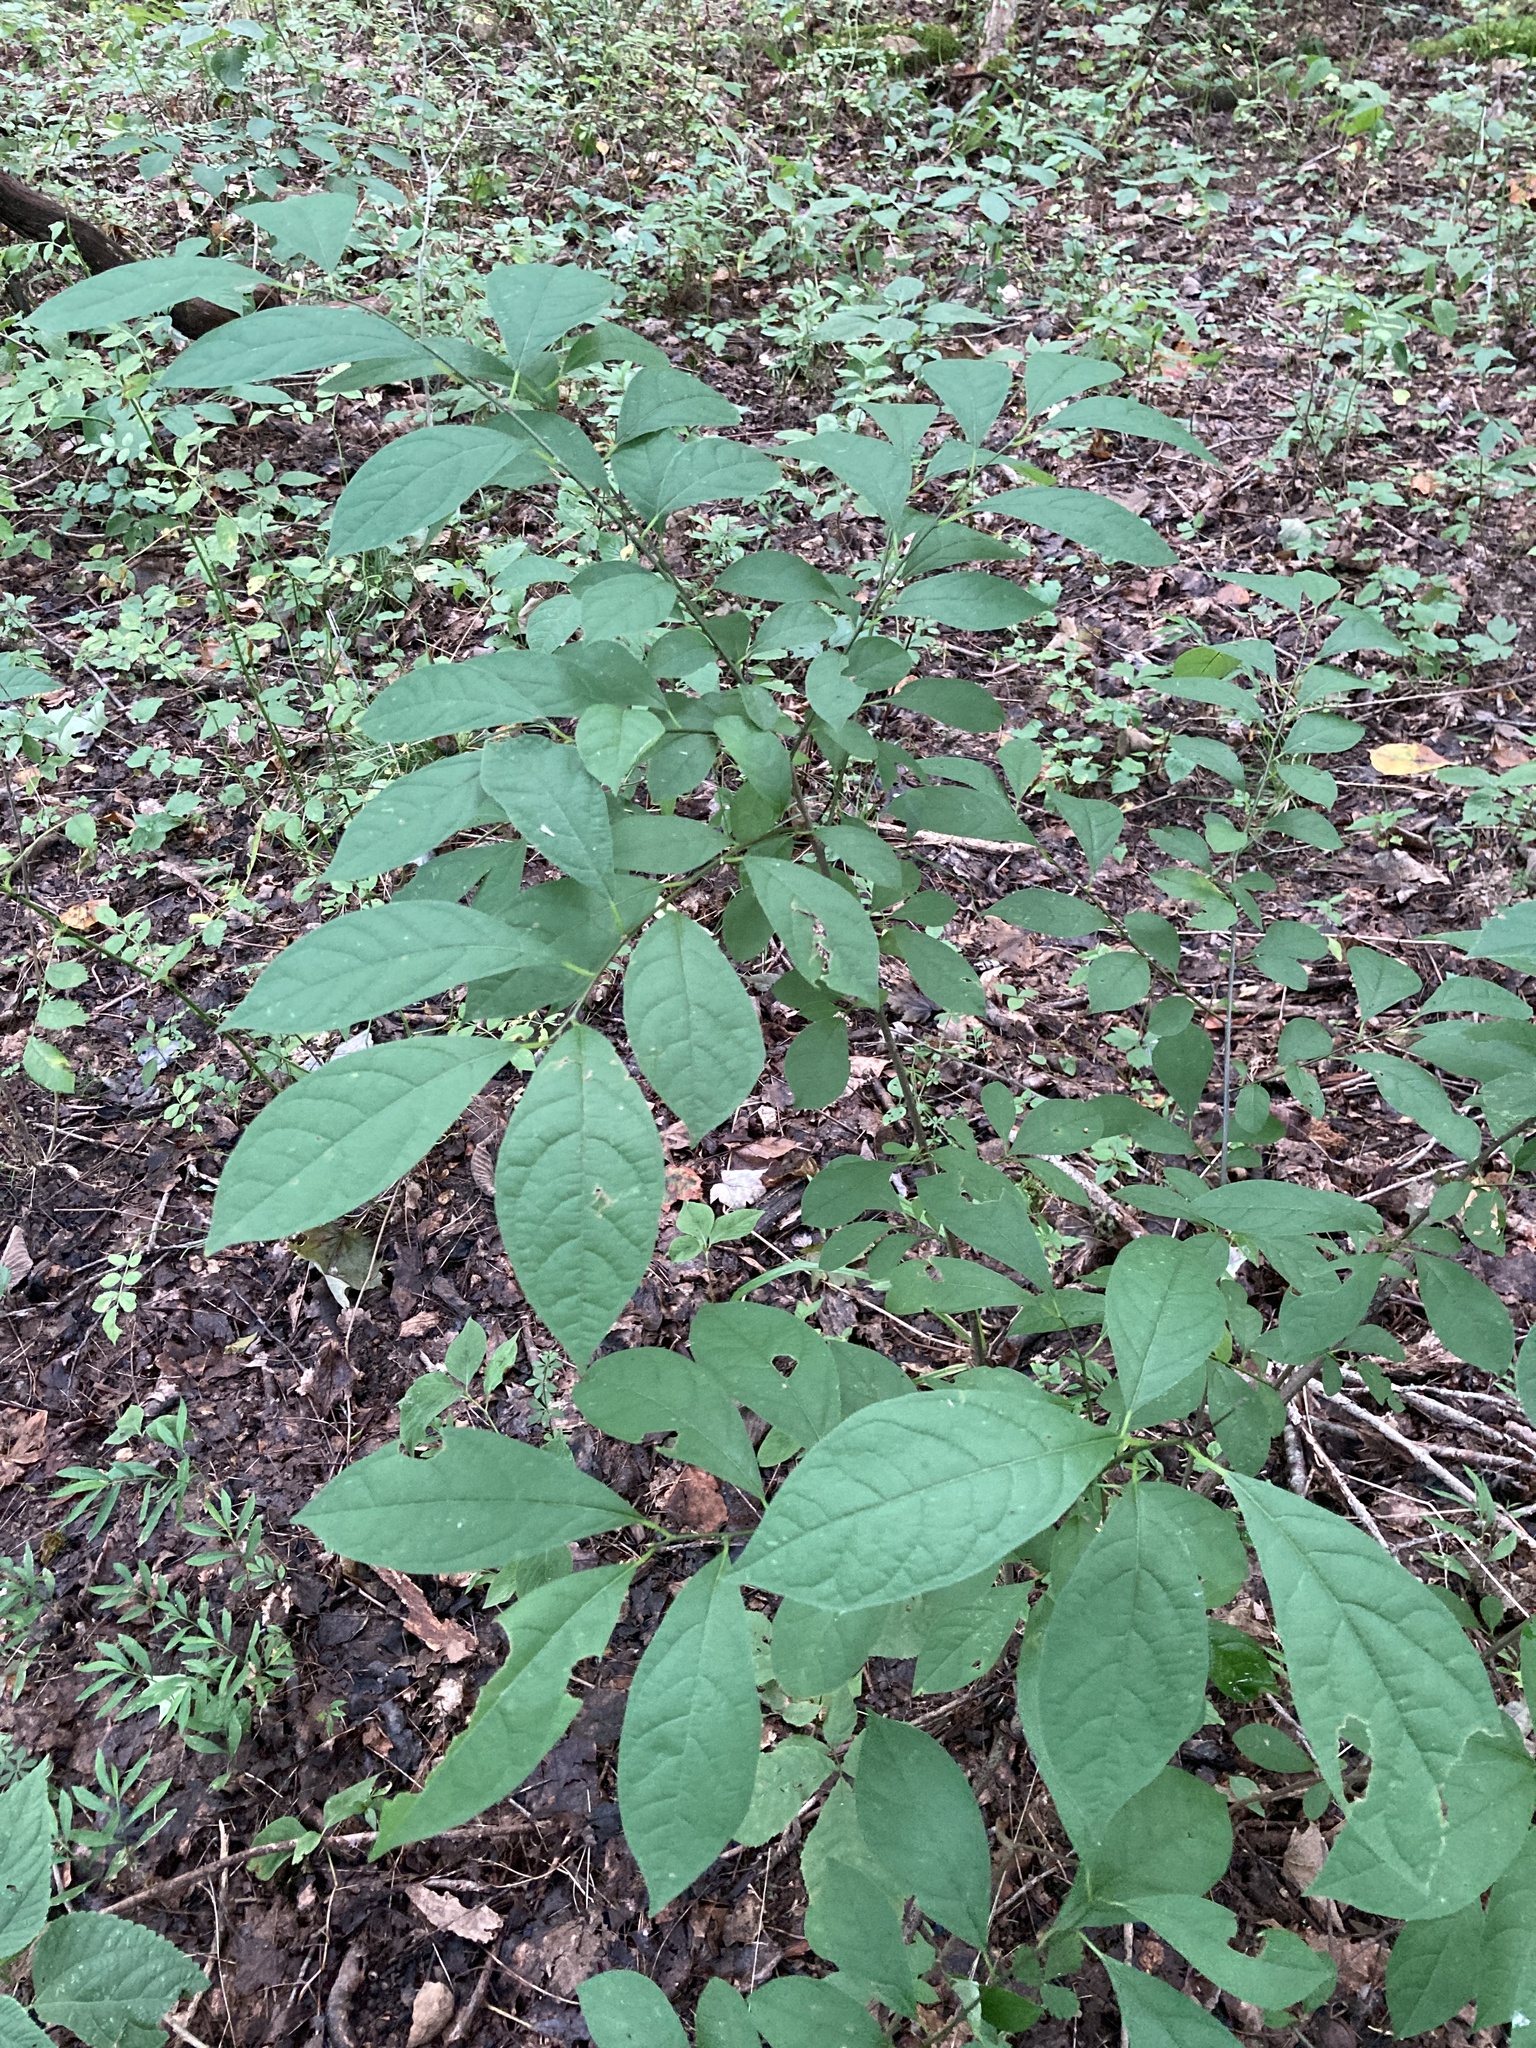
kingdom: Plantae
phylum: Tracheophyta
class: Magnoliopsida
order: Laurales
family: Lauraceae
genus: Lindera
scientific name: Lindera benzoin
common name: Spicebush
